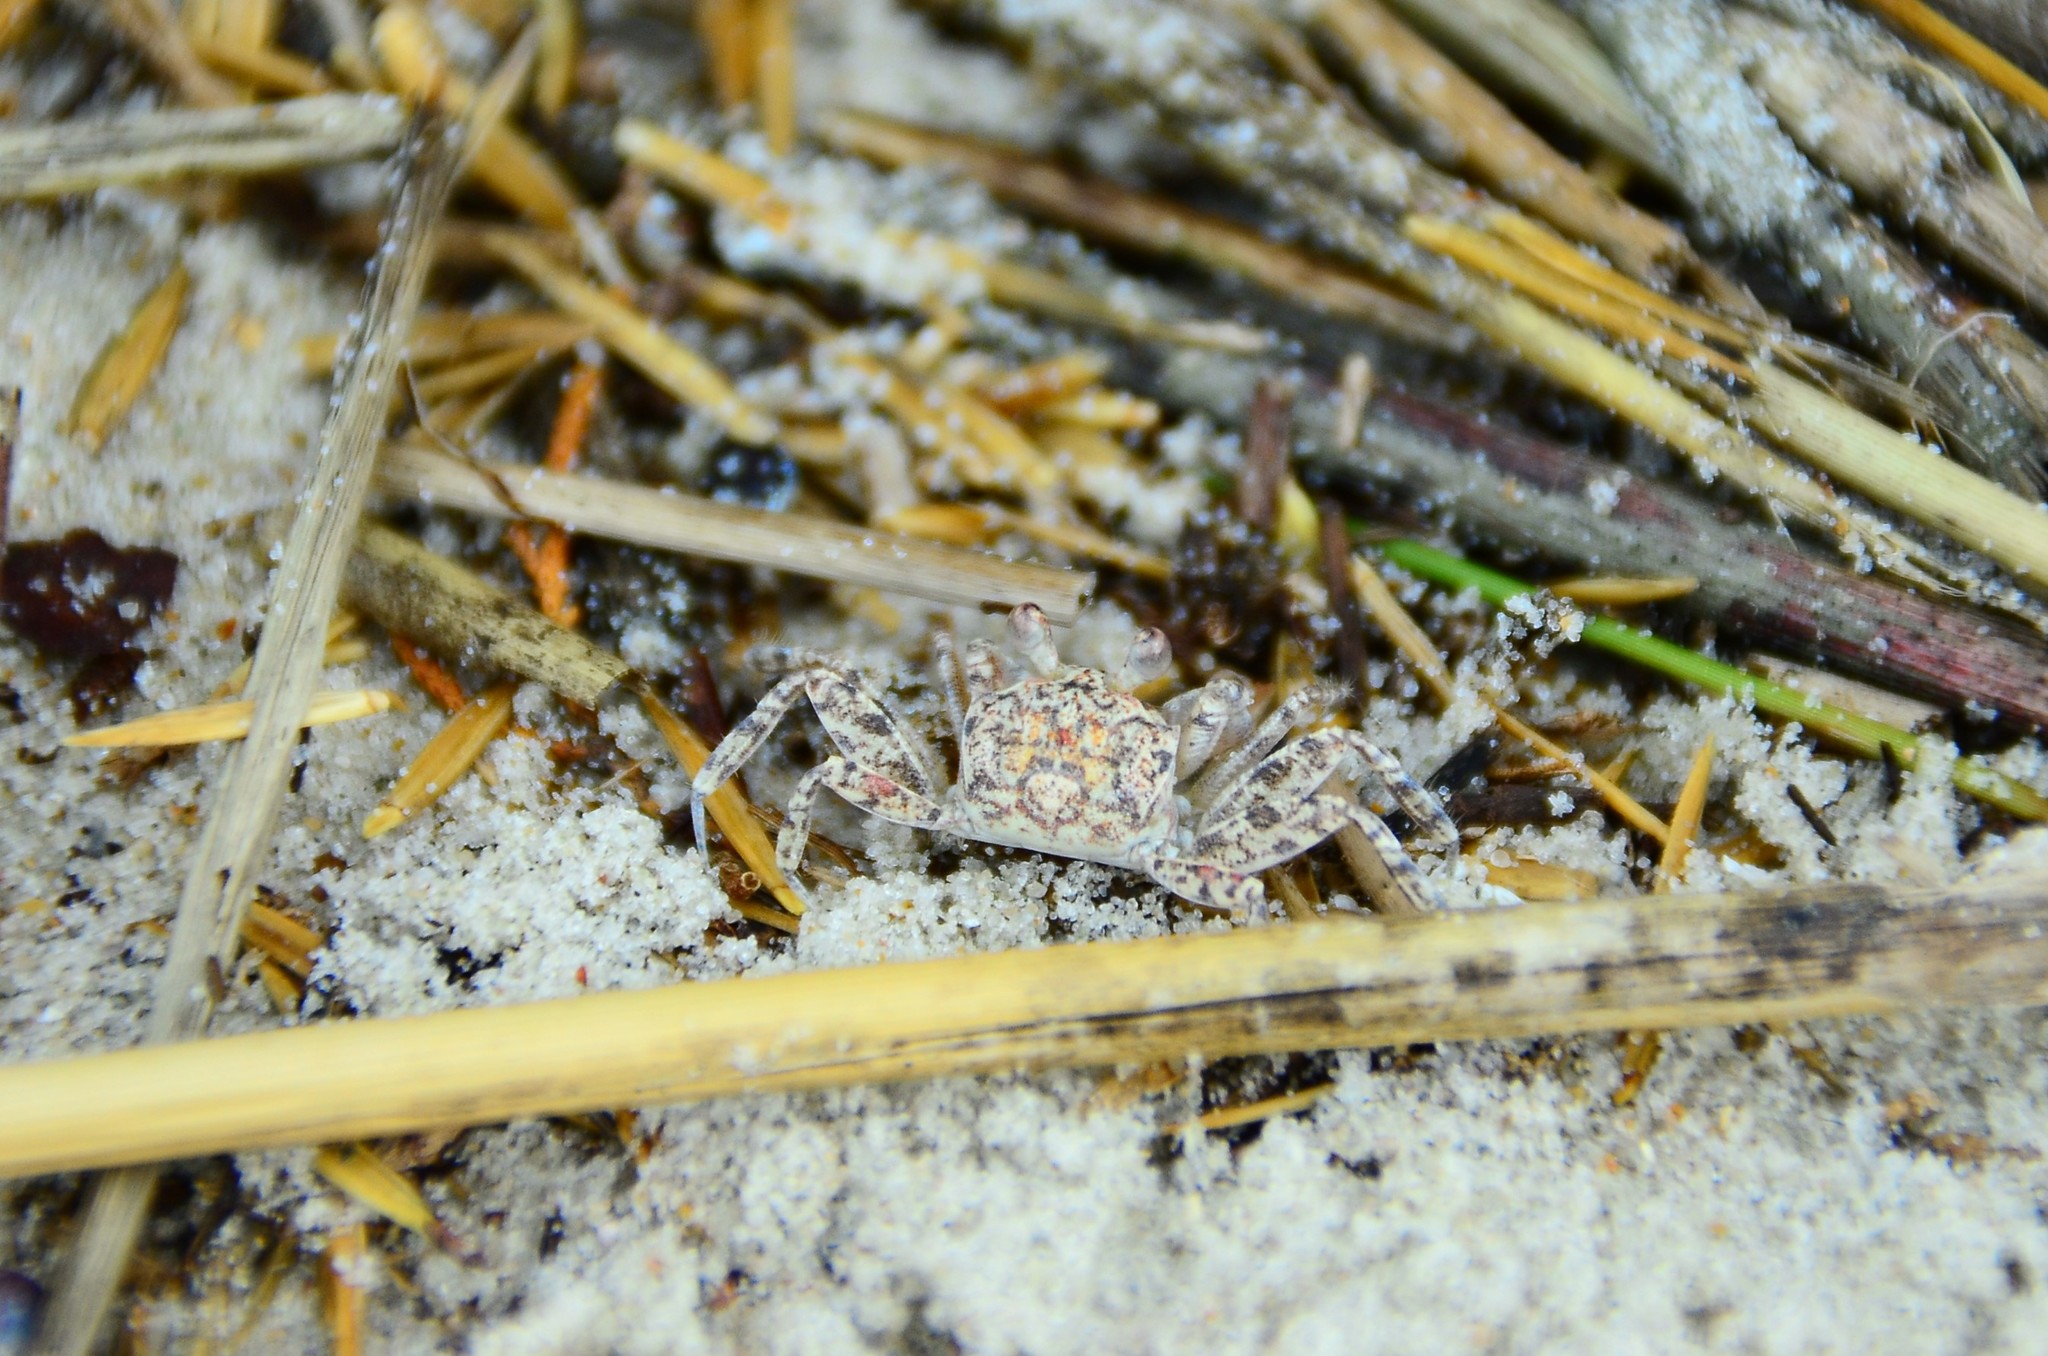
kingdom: Animalia
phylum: Arthropoda
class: Malacostraca
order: Decapoda
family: Ocypodidae
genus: Ocypode
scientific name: Ocypode quadrata
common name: Ghost crab
